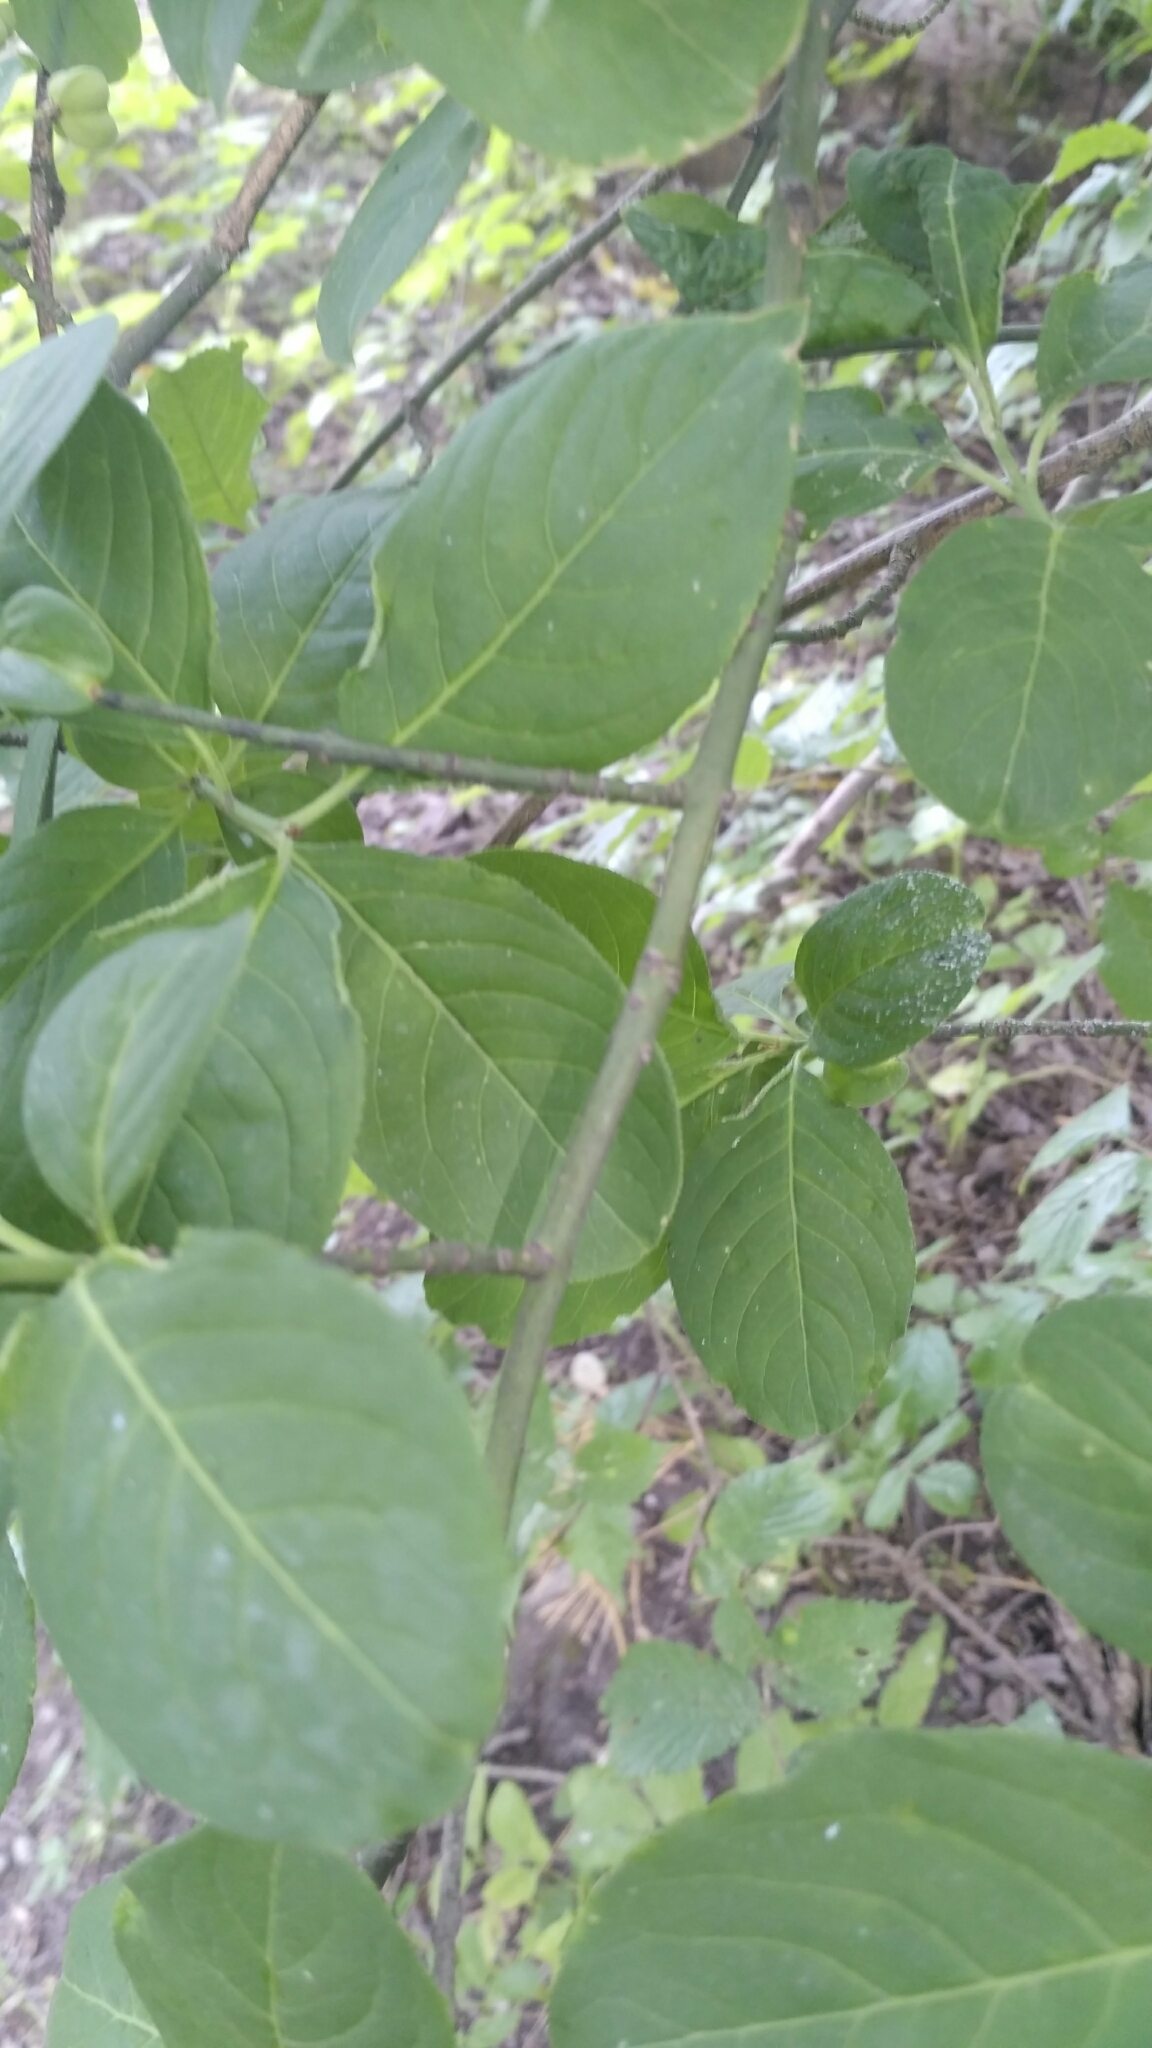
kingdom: Plantae
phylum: Tracheophyta
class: Magnoliopsida
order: Celastrales
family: Celastraceae
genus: Euonymus
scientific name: Euonymus europaeus
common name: Spindle
